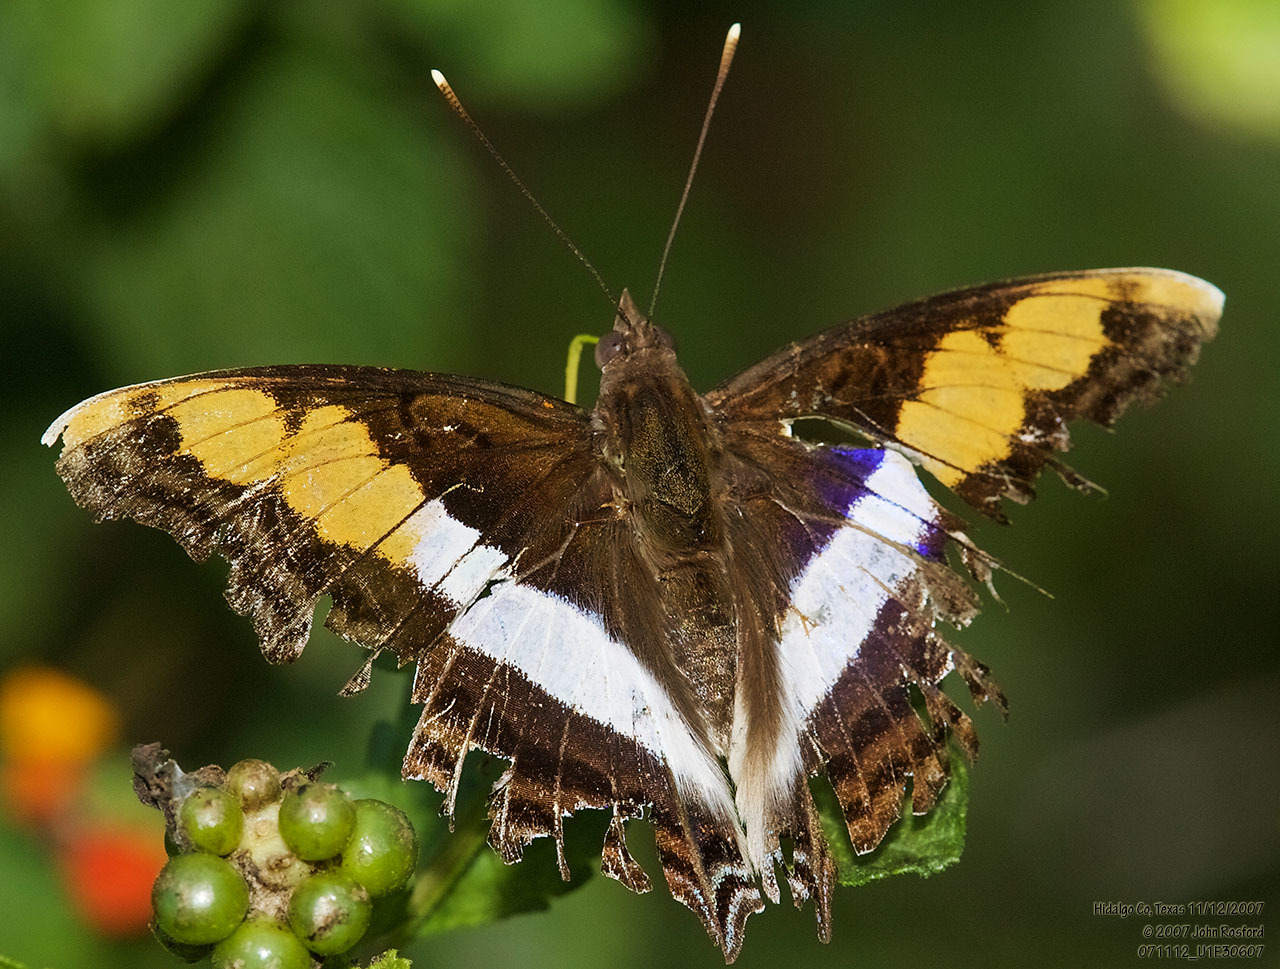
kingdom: Animalia
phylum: Arthropoda
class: Insecta
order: Lepidoptera
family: Nymphalidae
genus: Doxocopa
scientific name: Doxocopa laure
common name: Silver emperor
